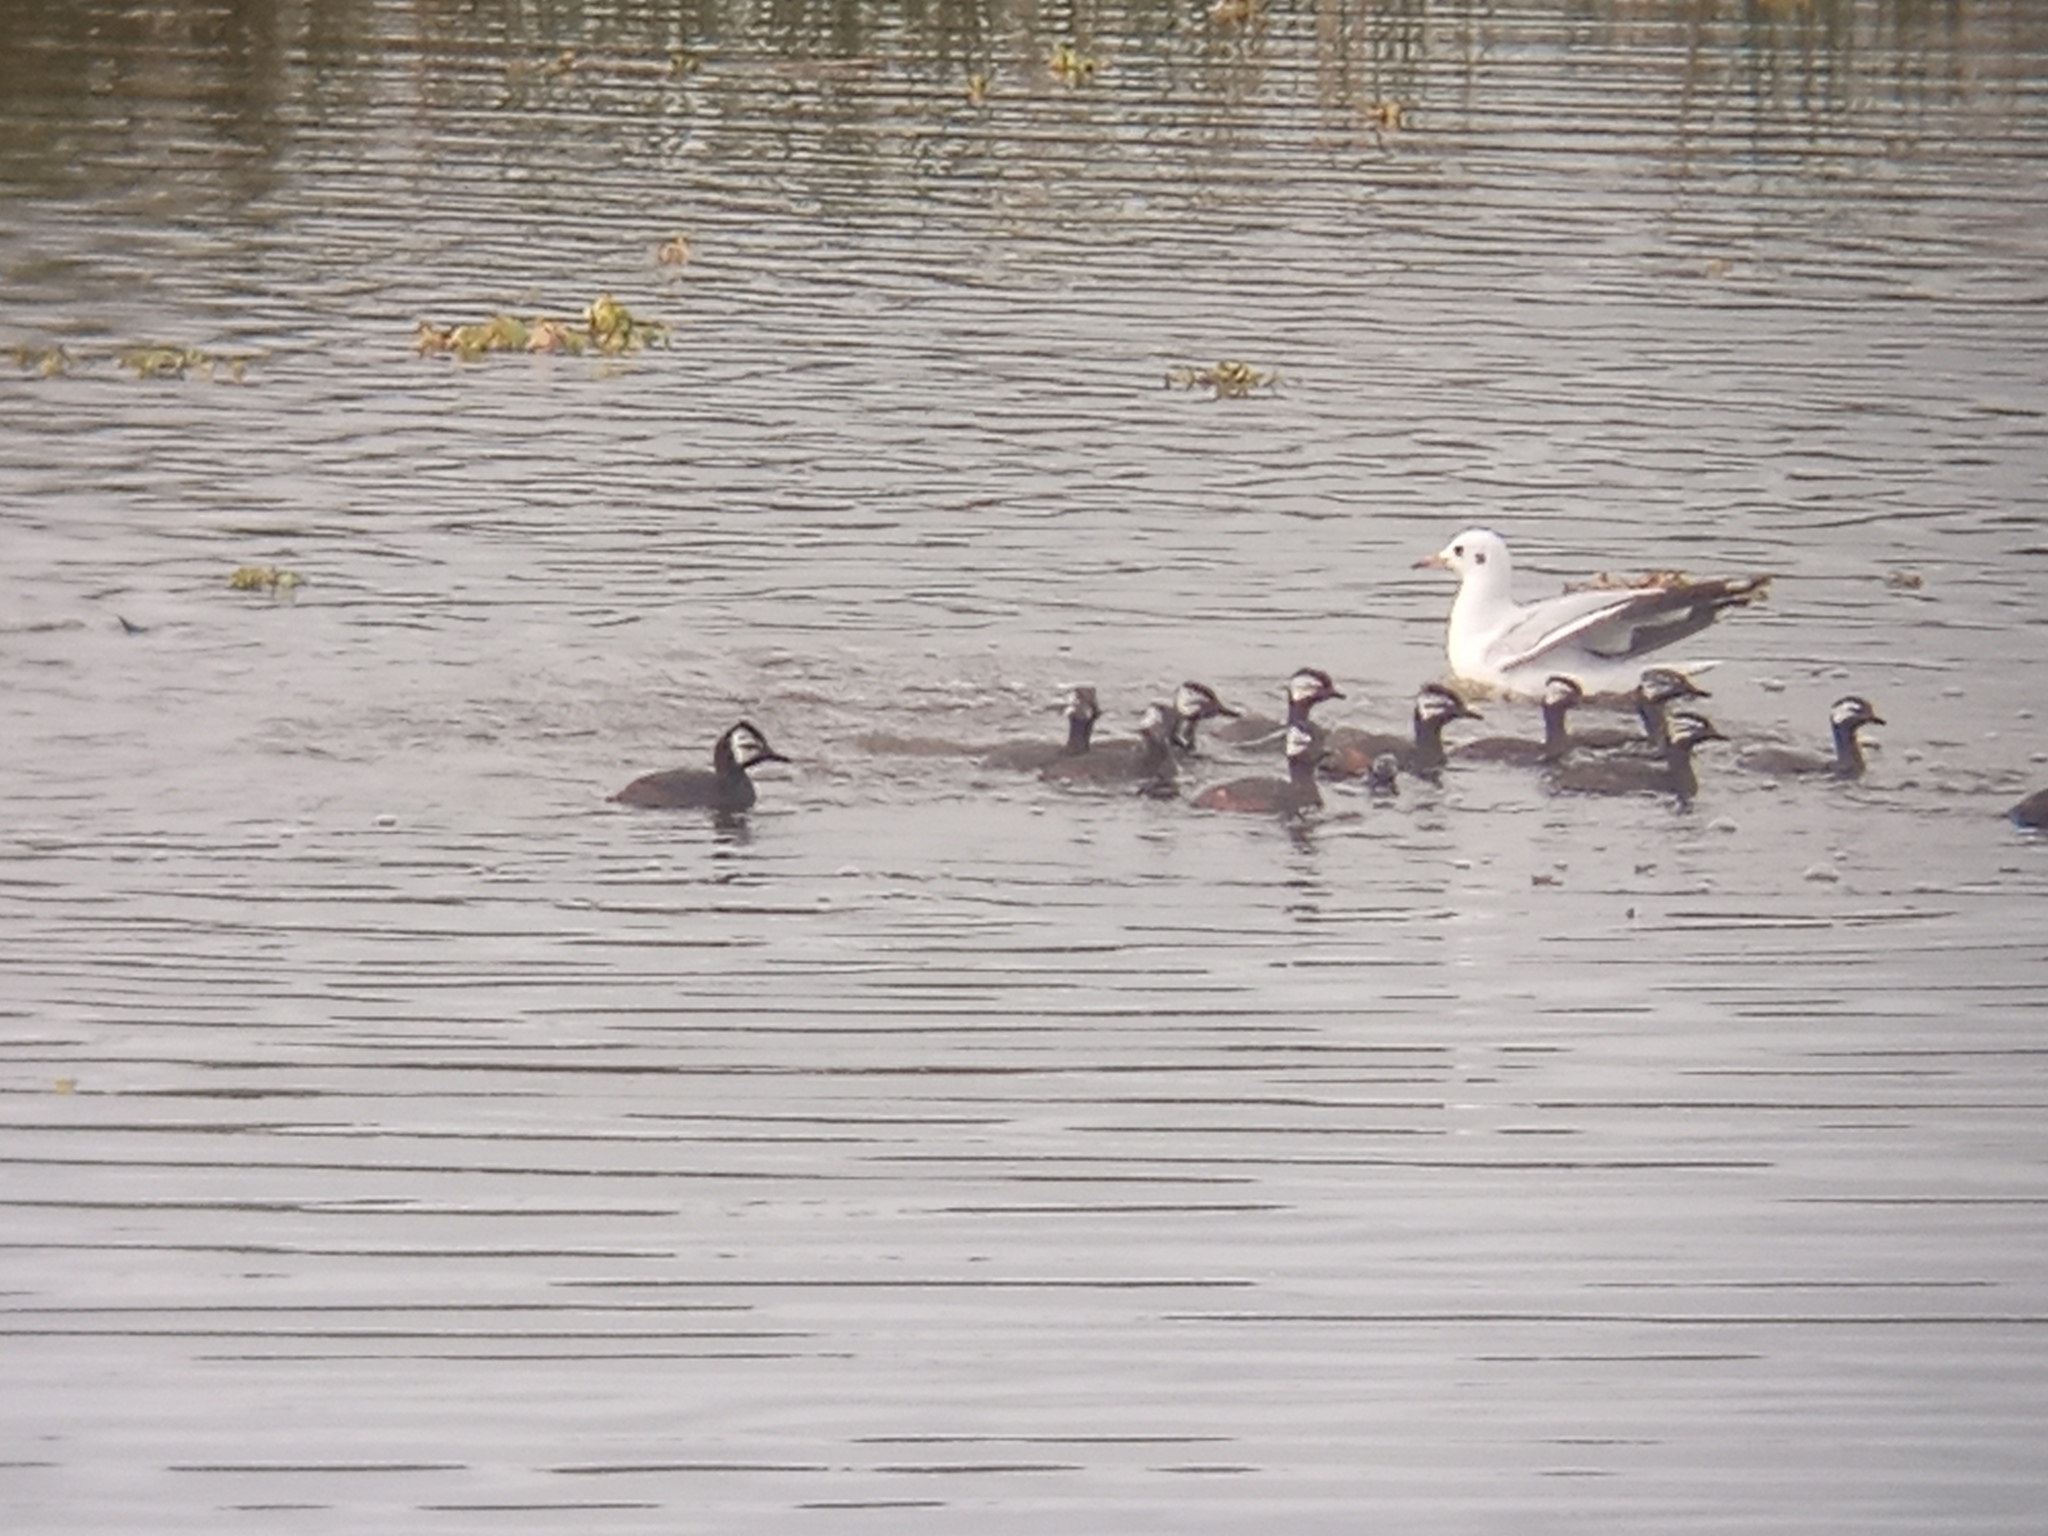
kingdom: Animalia
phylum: Chordata
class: Aves
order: Podicipediformes
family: Podicipedidae
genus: Rollandia
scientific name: Rollandia rolland
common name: White-tufted grebe
